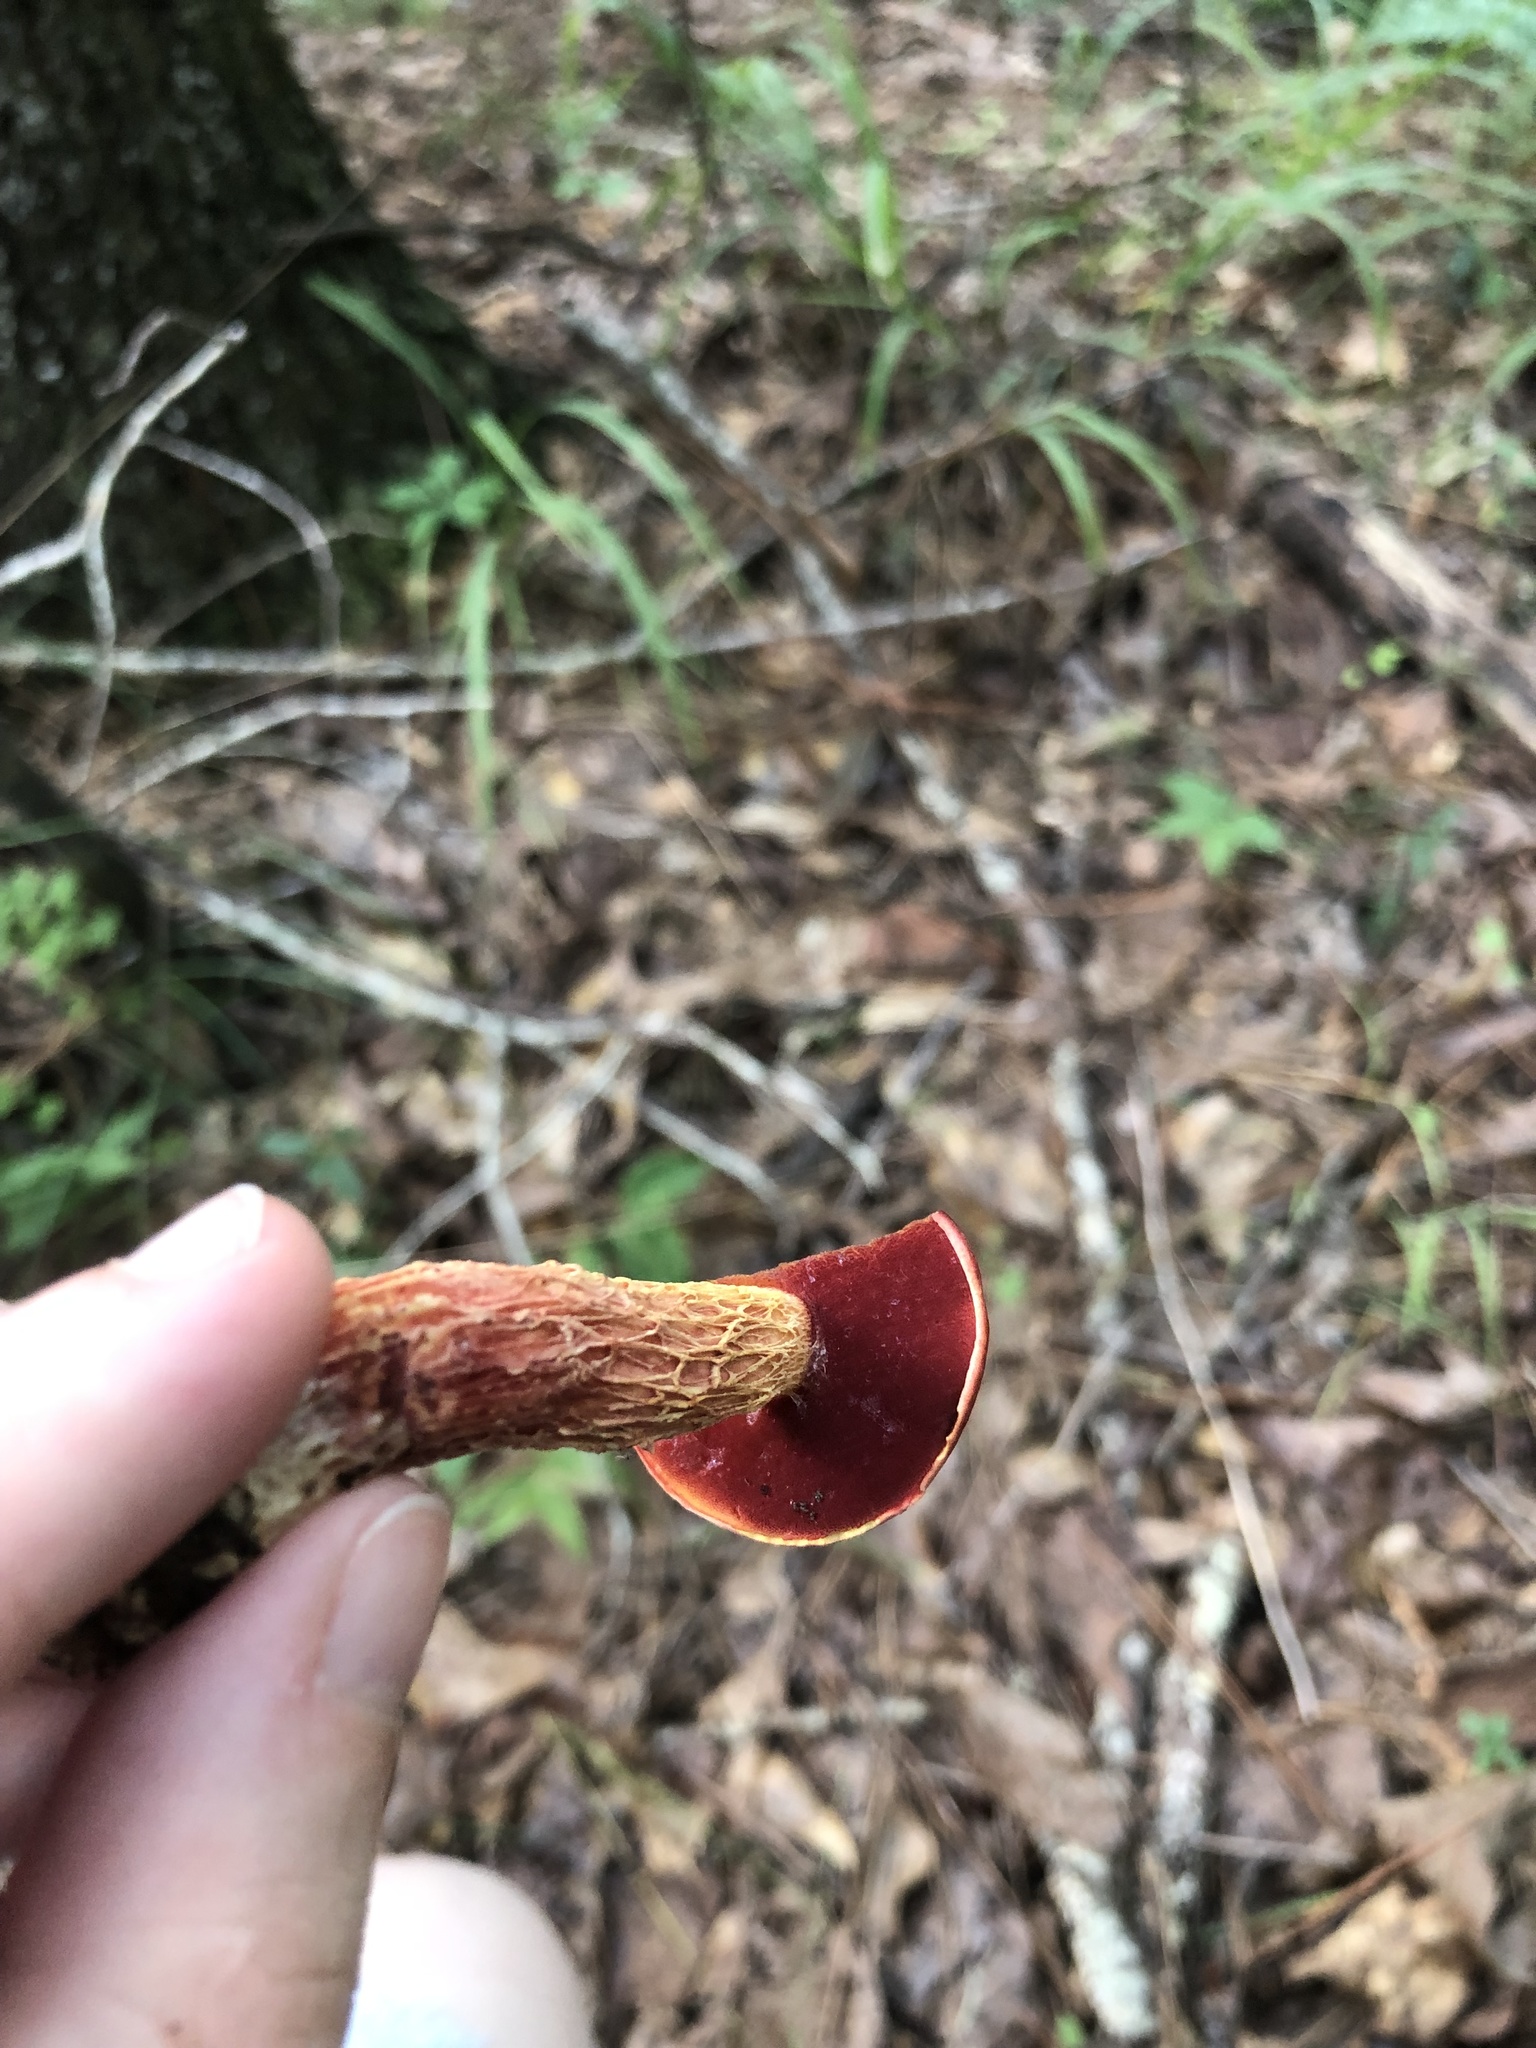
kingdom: Fungi
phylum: Basidiomycota
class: Agaricomycetes
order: Boletales
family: Boletaceae
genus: Butyriboletus
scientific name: Butyriboletus frostii
